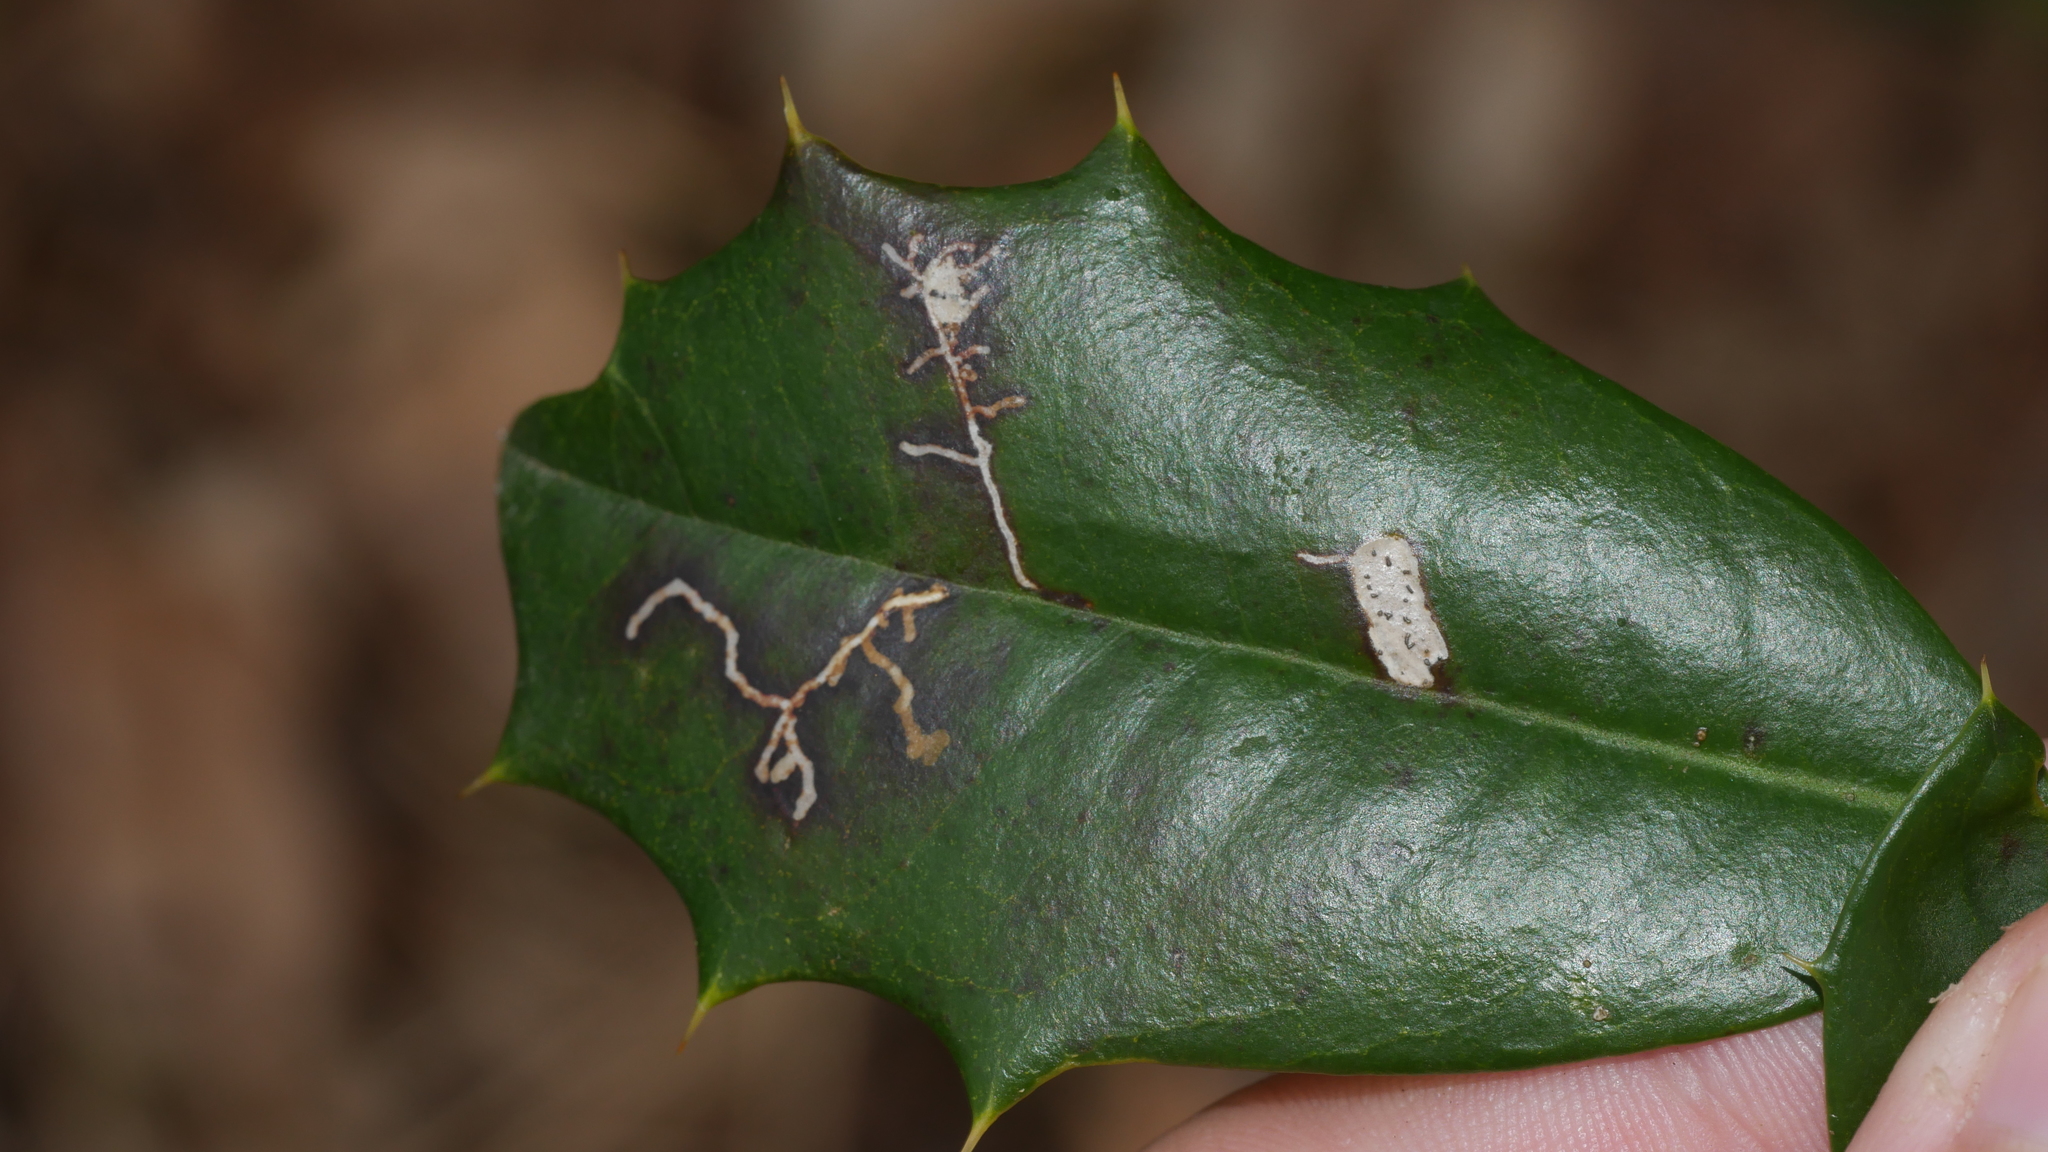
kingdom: Animalia
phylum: Arthropoda
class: Insecta
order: Lepidoptera
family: Tortricidae
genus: Rhopobota
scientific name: Rhopobota
